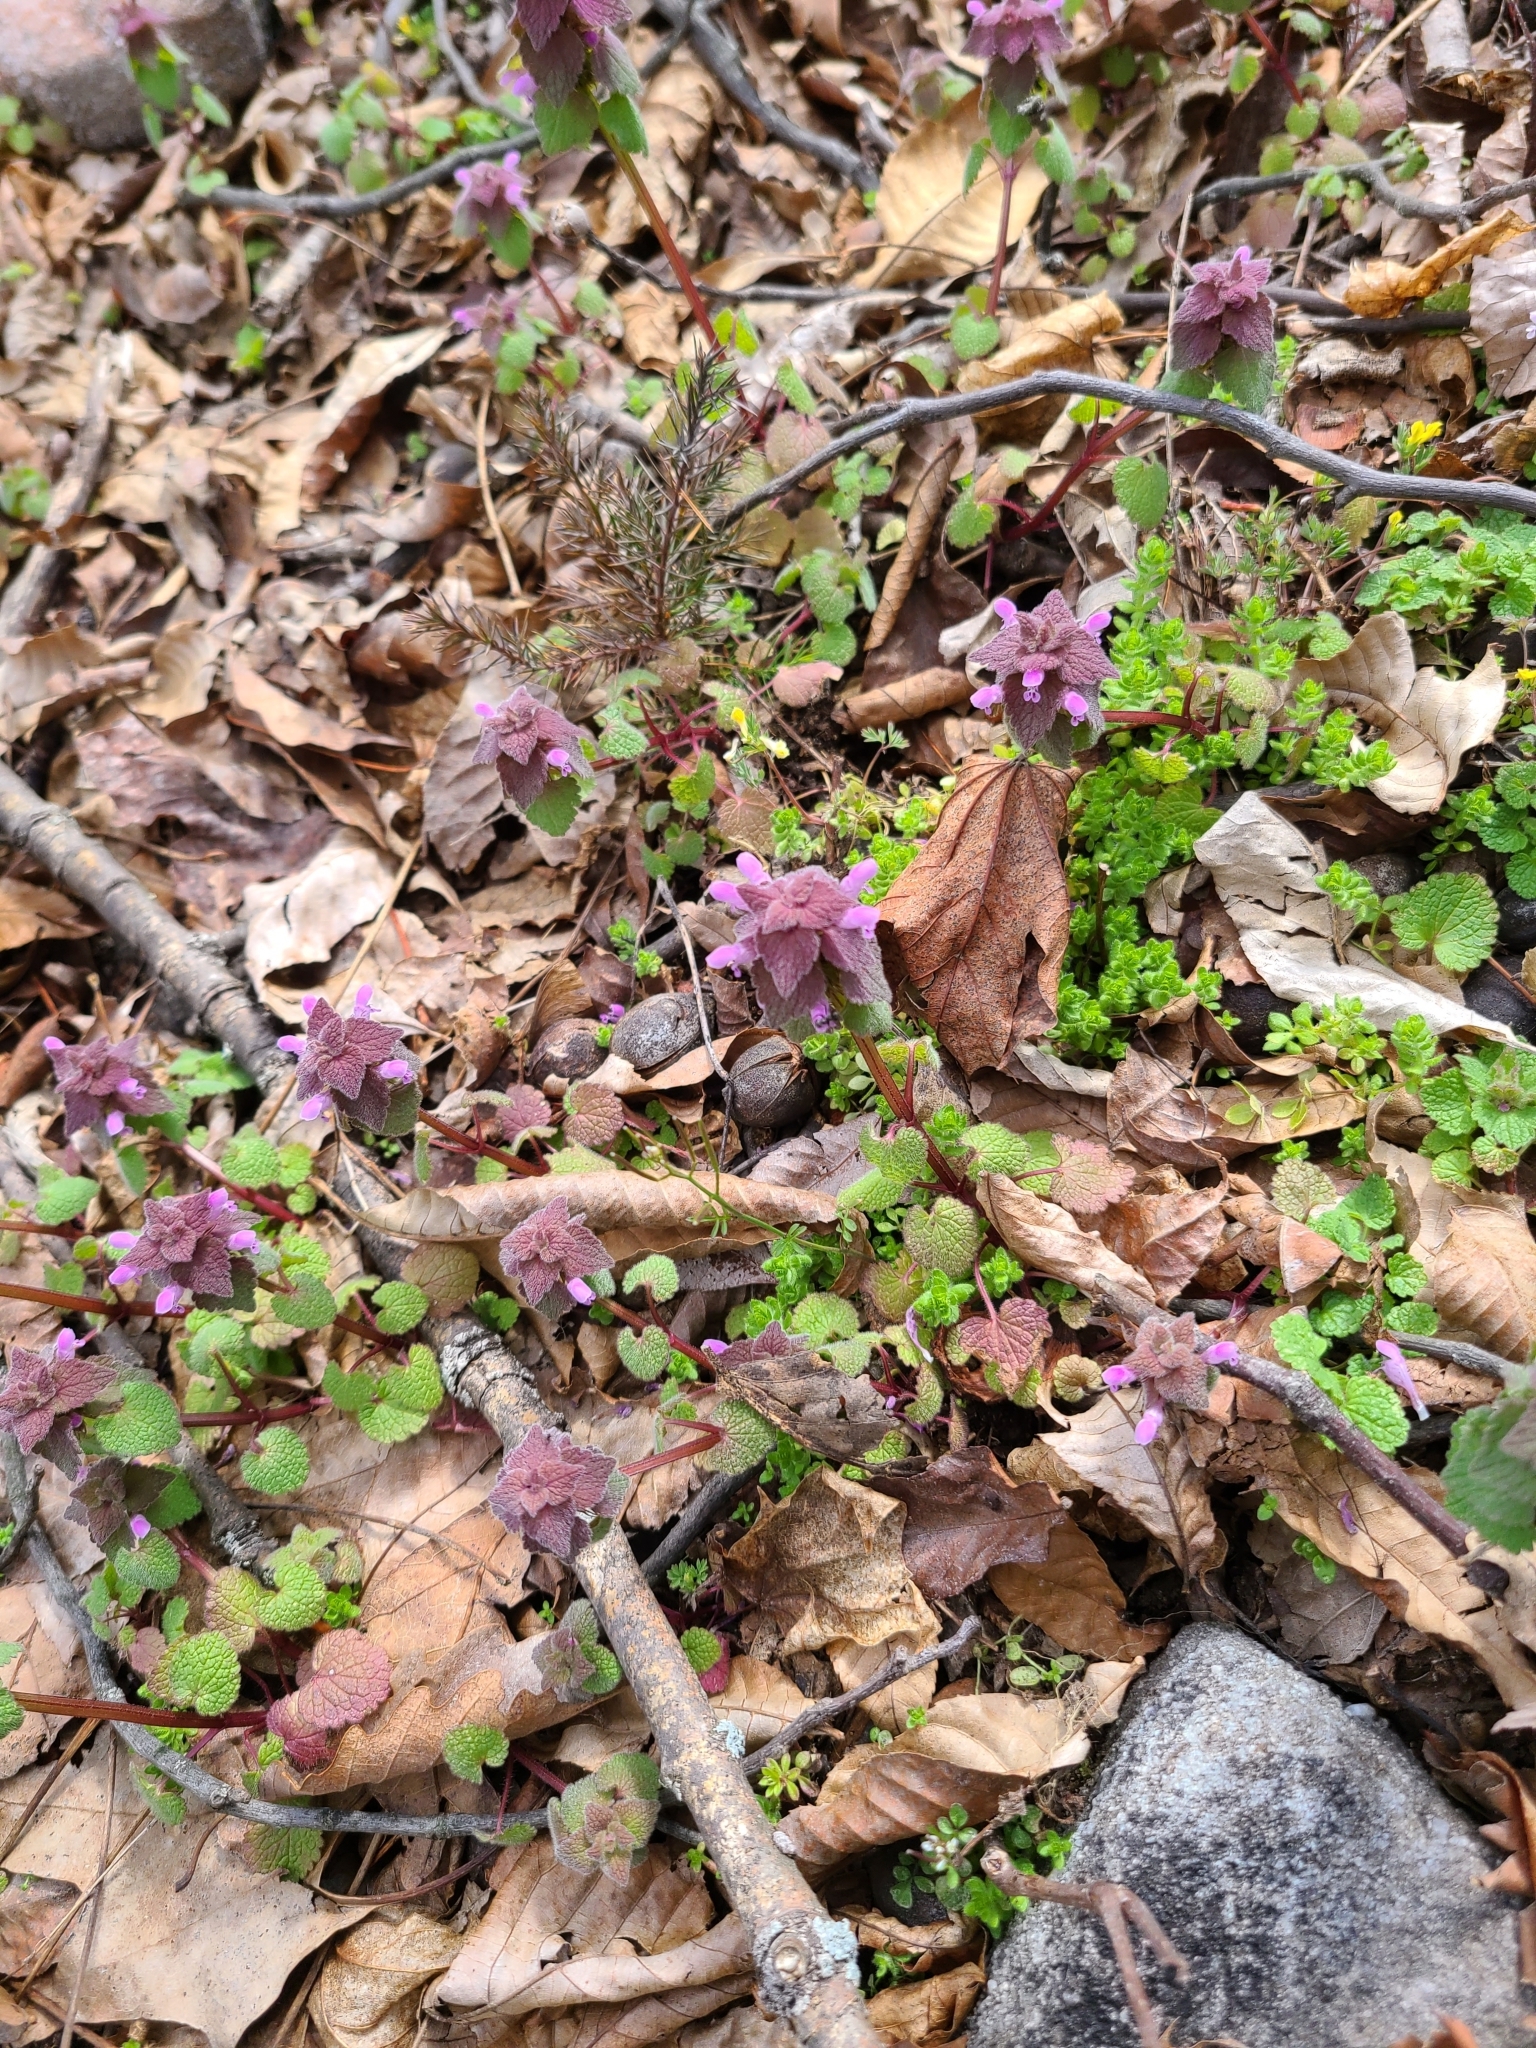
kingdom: Plantae
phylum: Tracheophyta
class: Magnoliopsida
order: Lamiales
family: Lamiaceae
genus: Lamium
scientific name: Lamium purpureum
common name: Red dead-nettle
